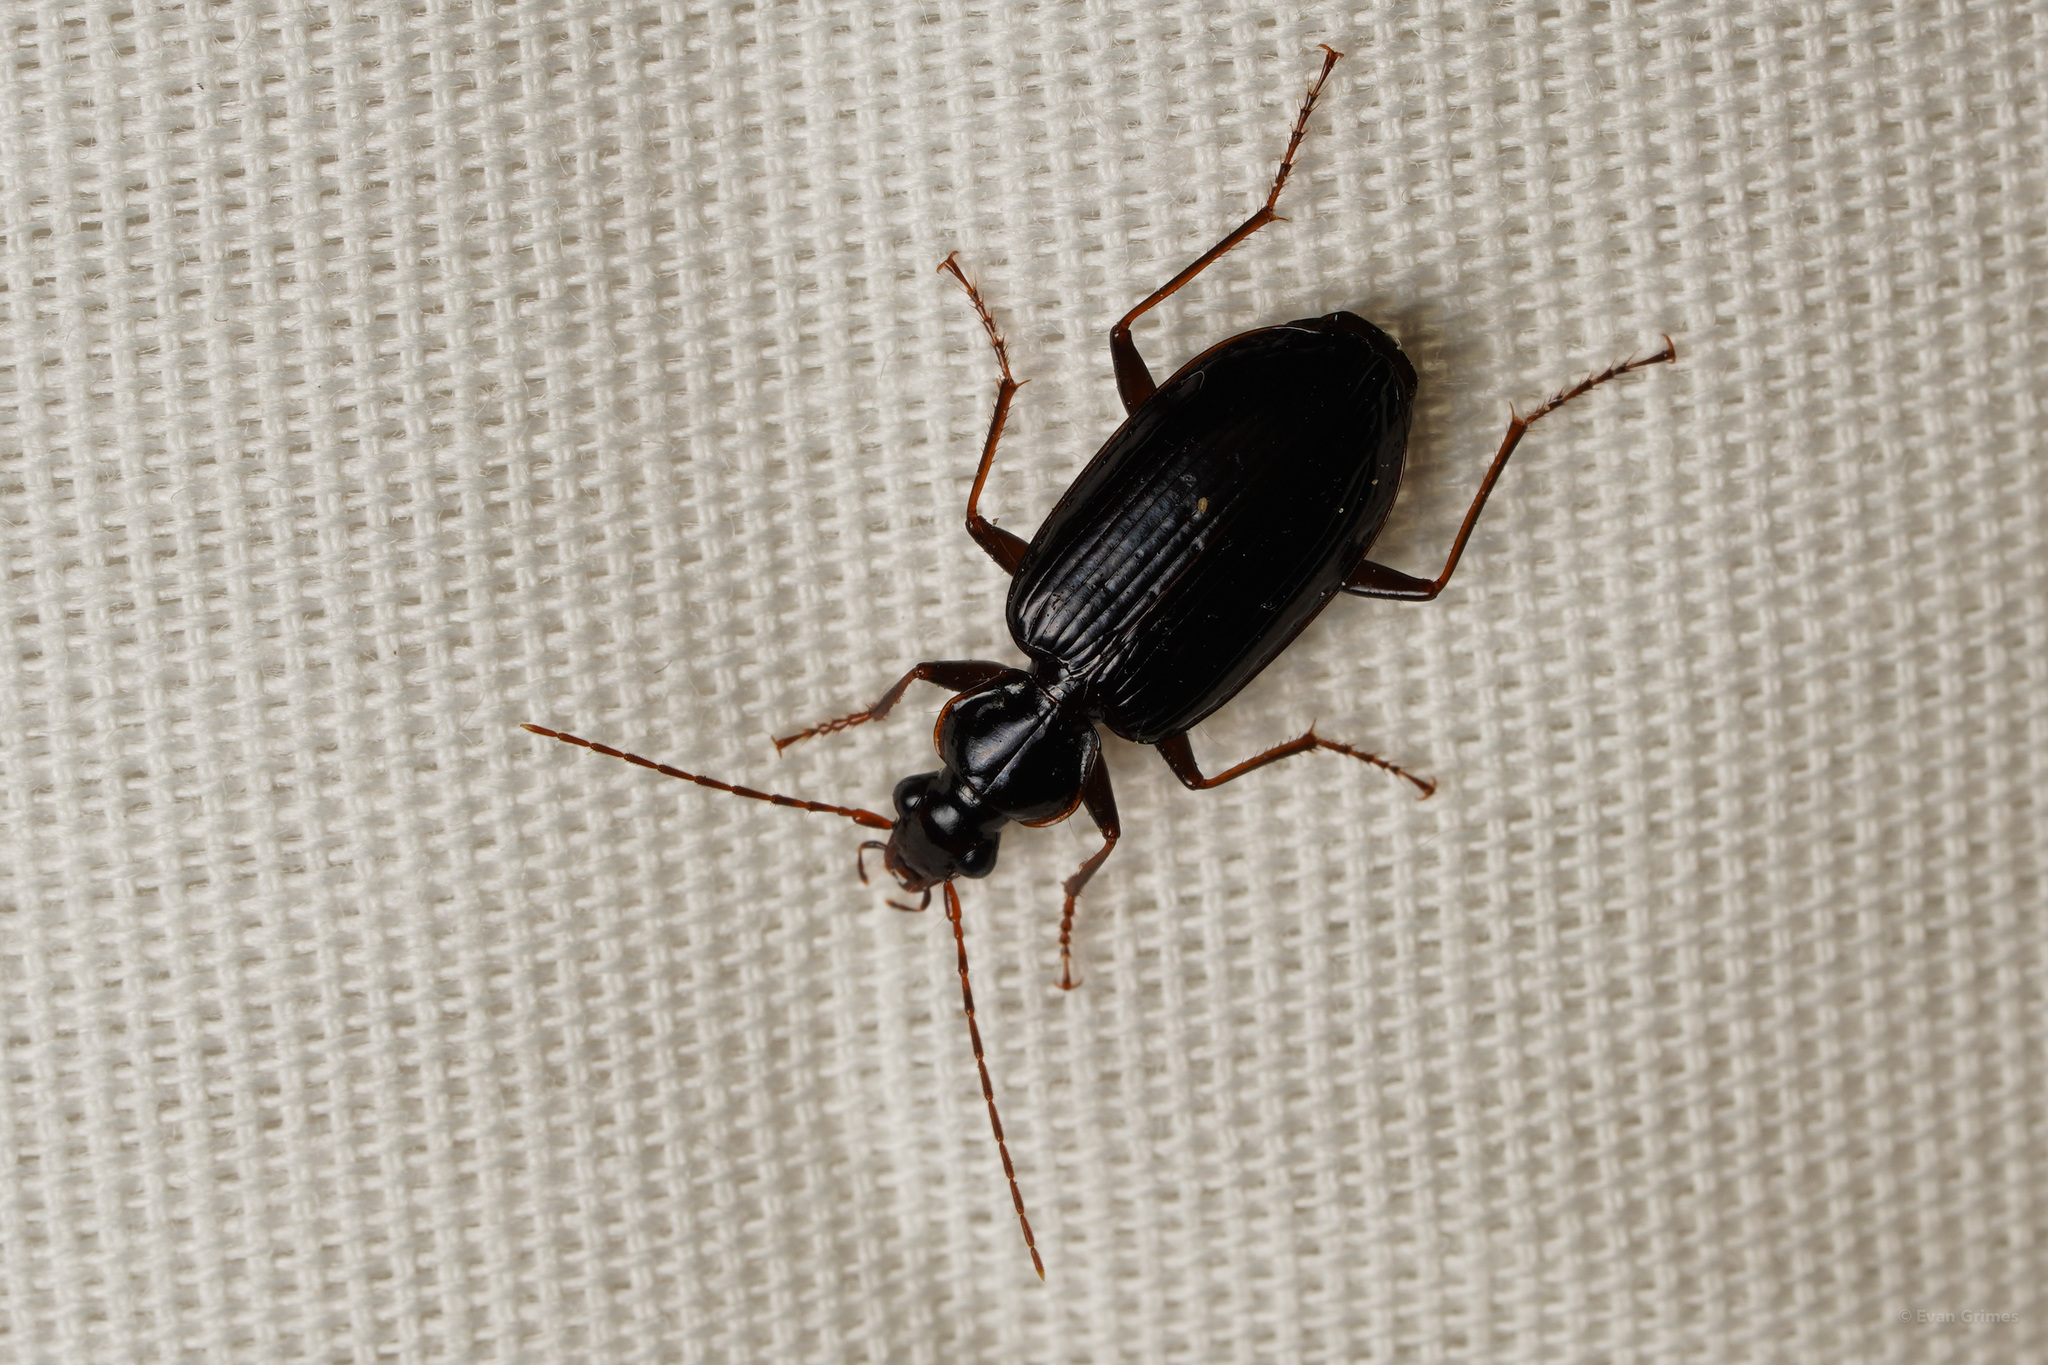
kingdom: Animalia
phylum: Arthropoda
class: Insecta
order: Coleoptera
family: Carabidae
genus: Platynus
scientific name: Platynus cincticollis
